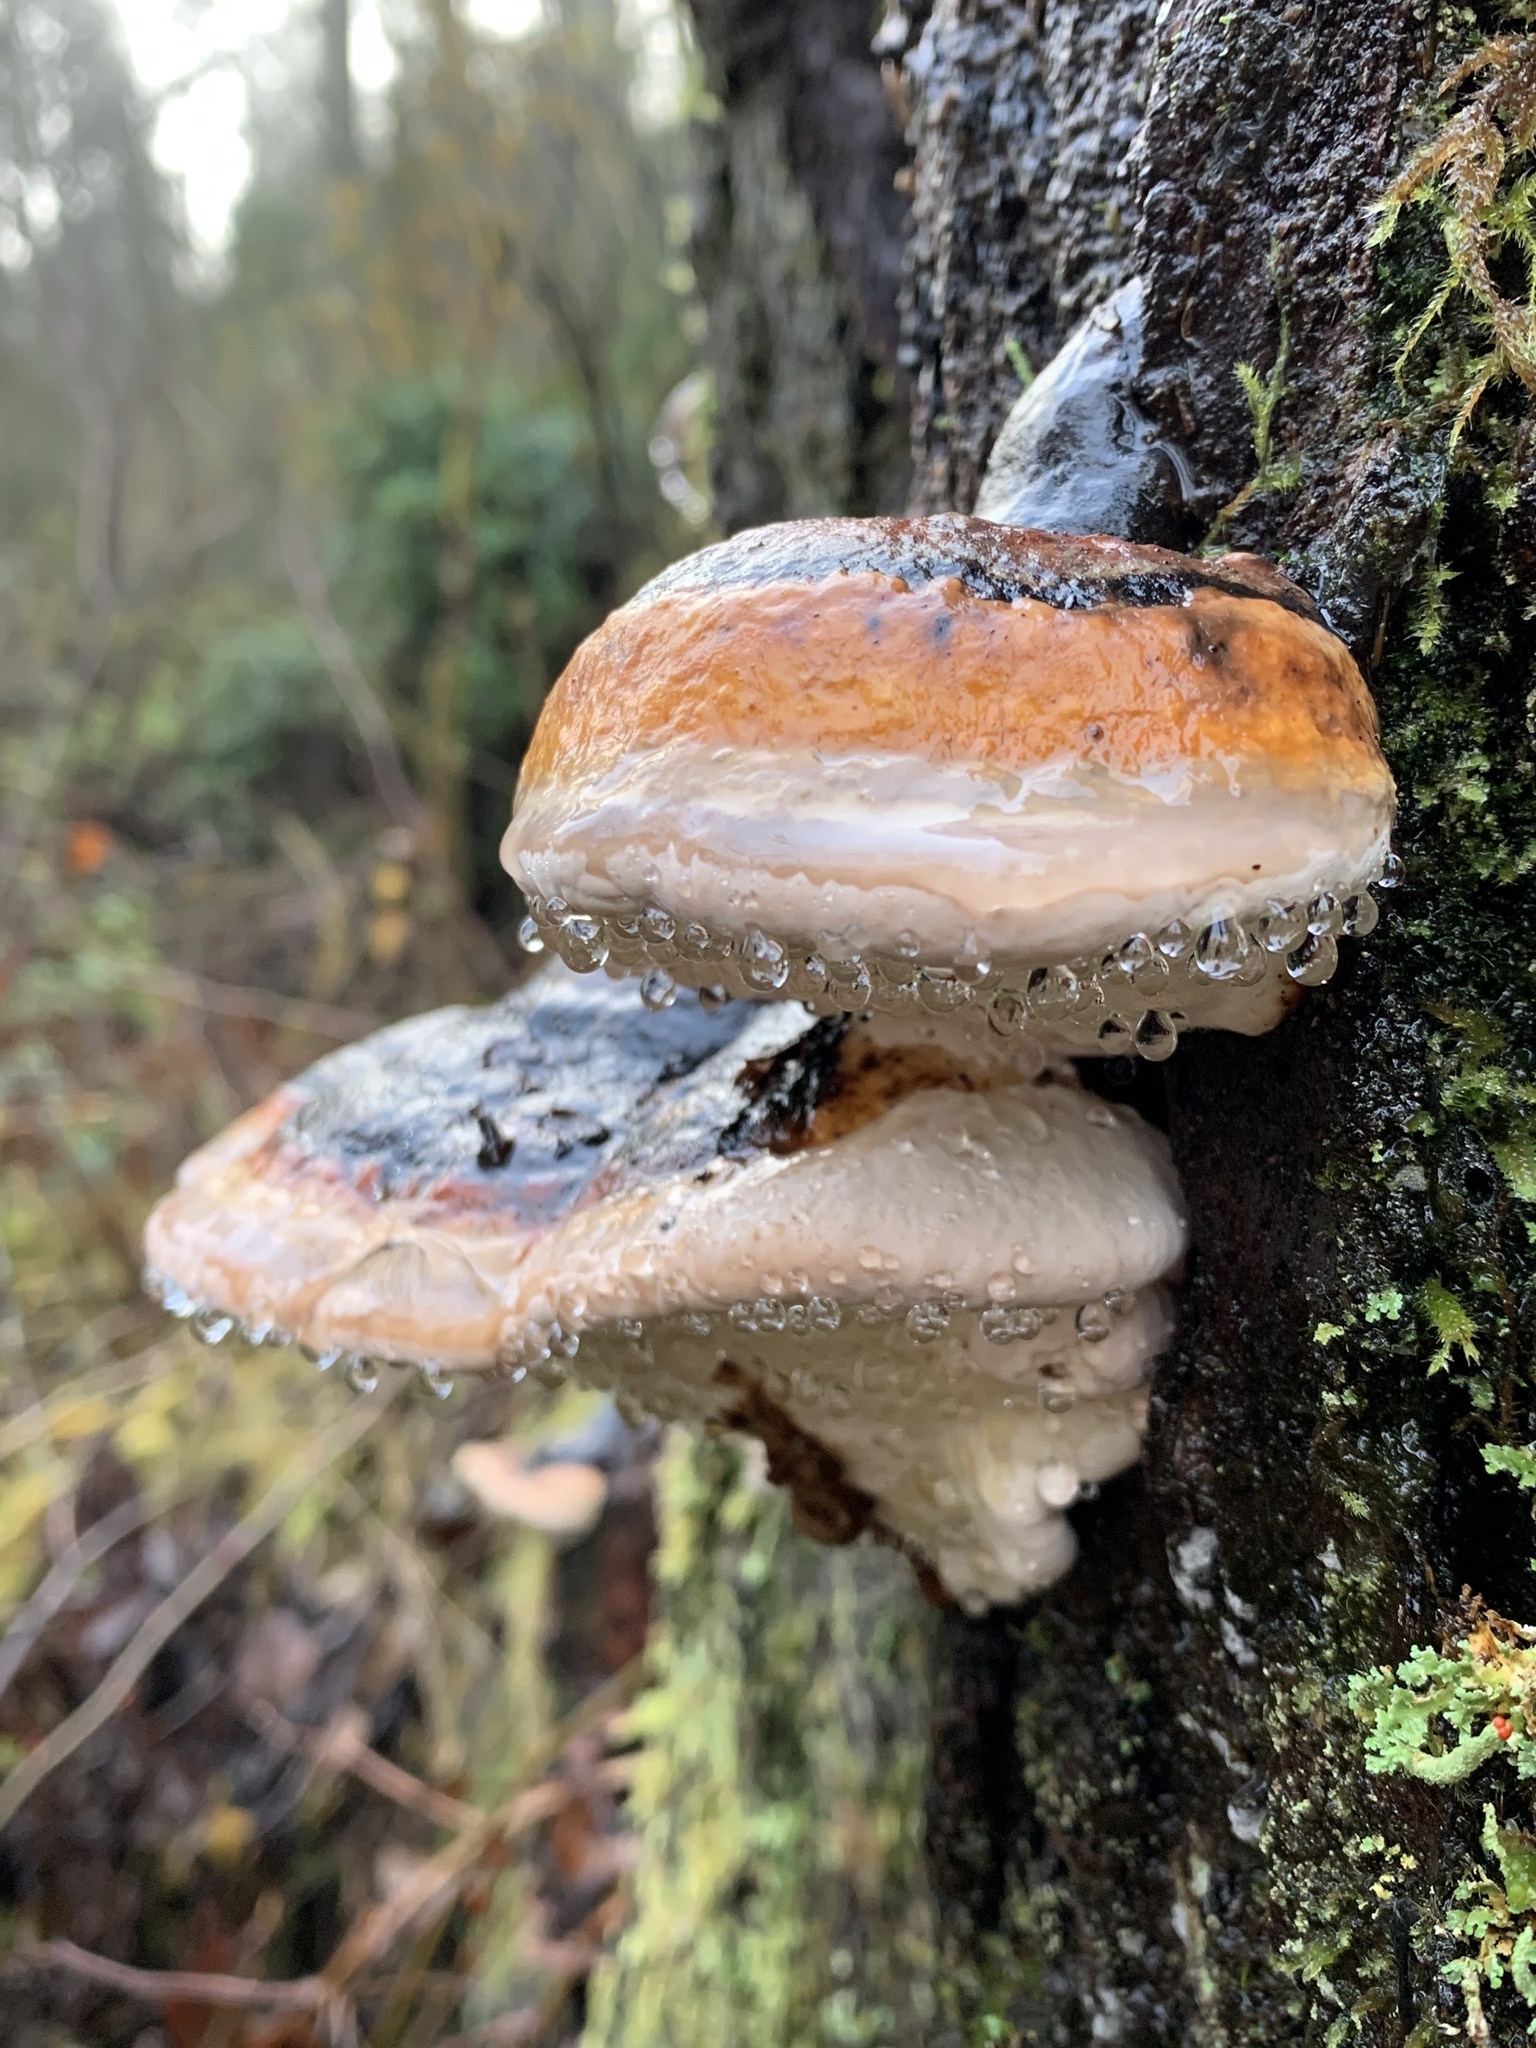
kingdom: Fungi
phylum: Basidiomycota
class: Agaricomycetes
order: Polyporales
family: Fomitopsidaceae
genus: Fomitopsis
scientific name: Fomitopsis mounceae
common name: Northern red belt
